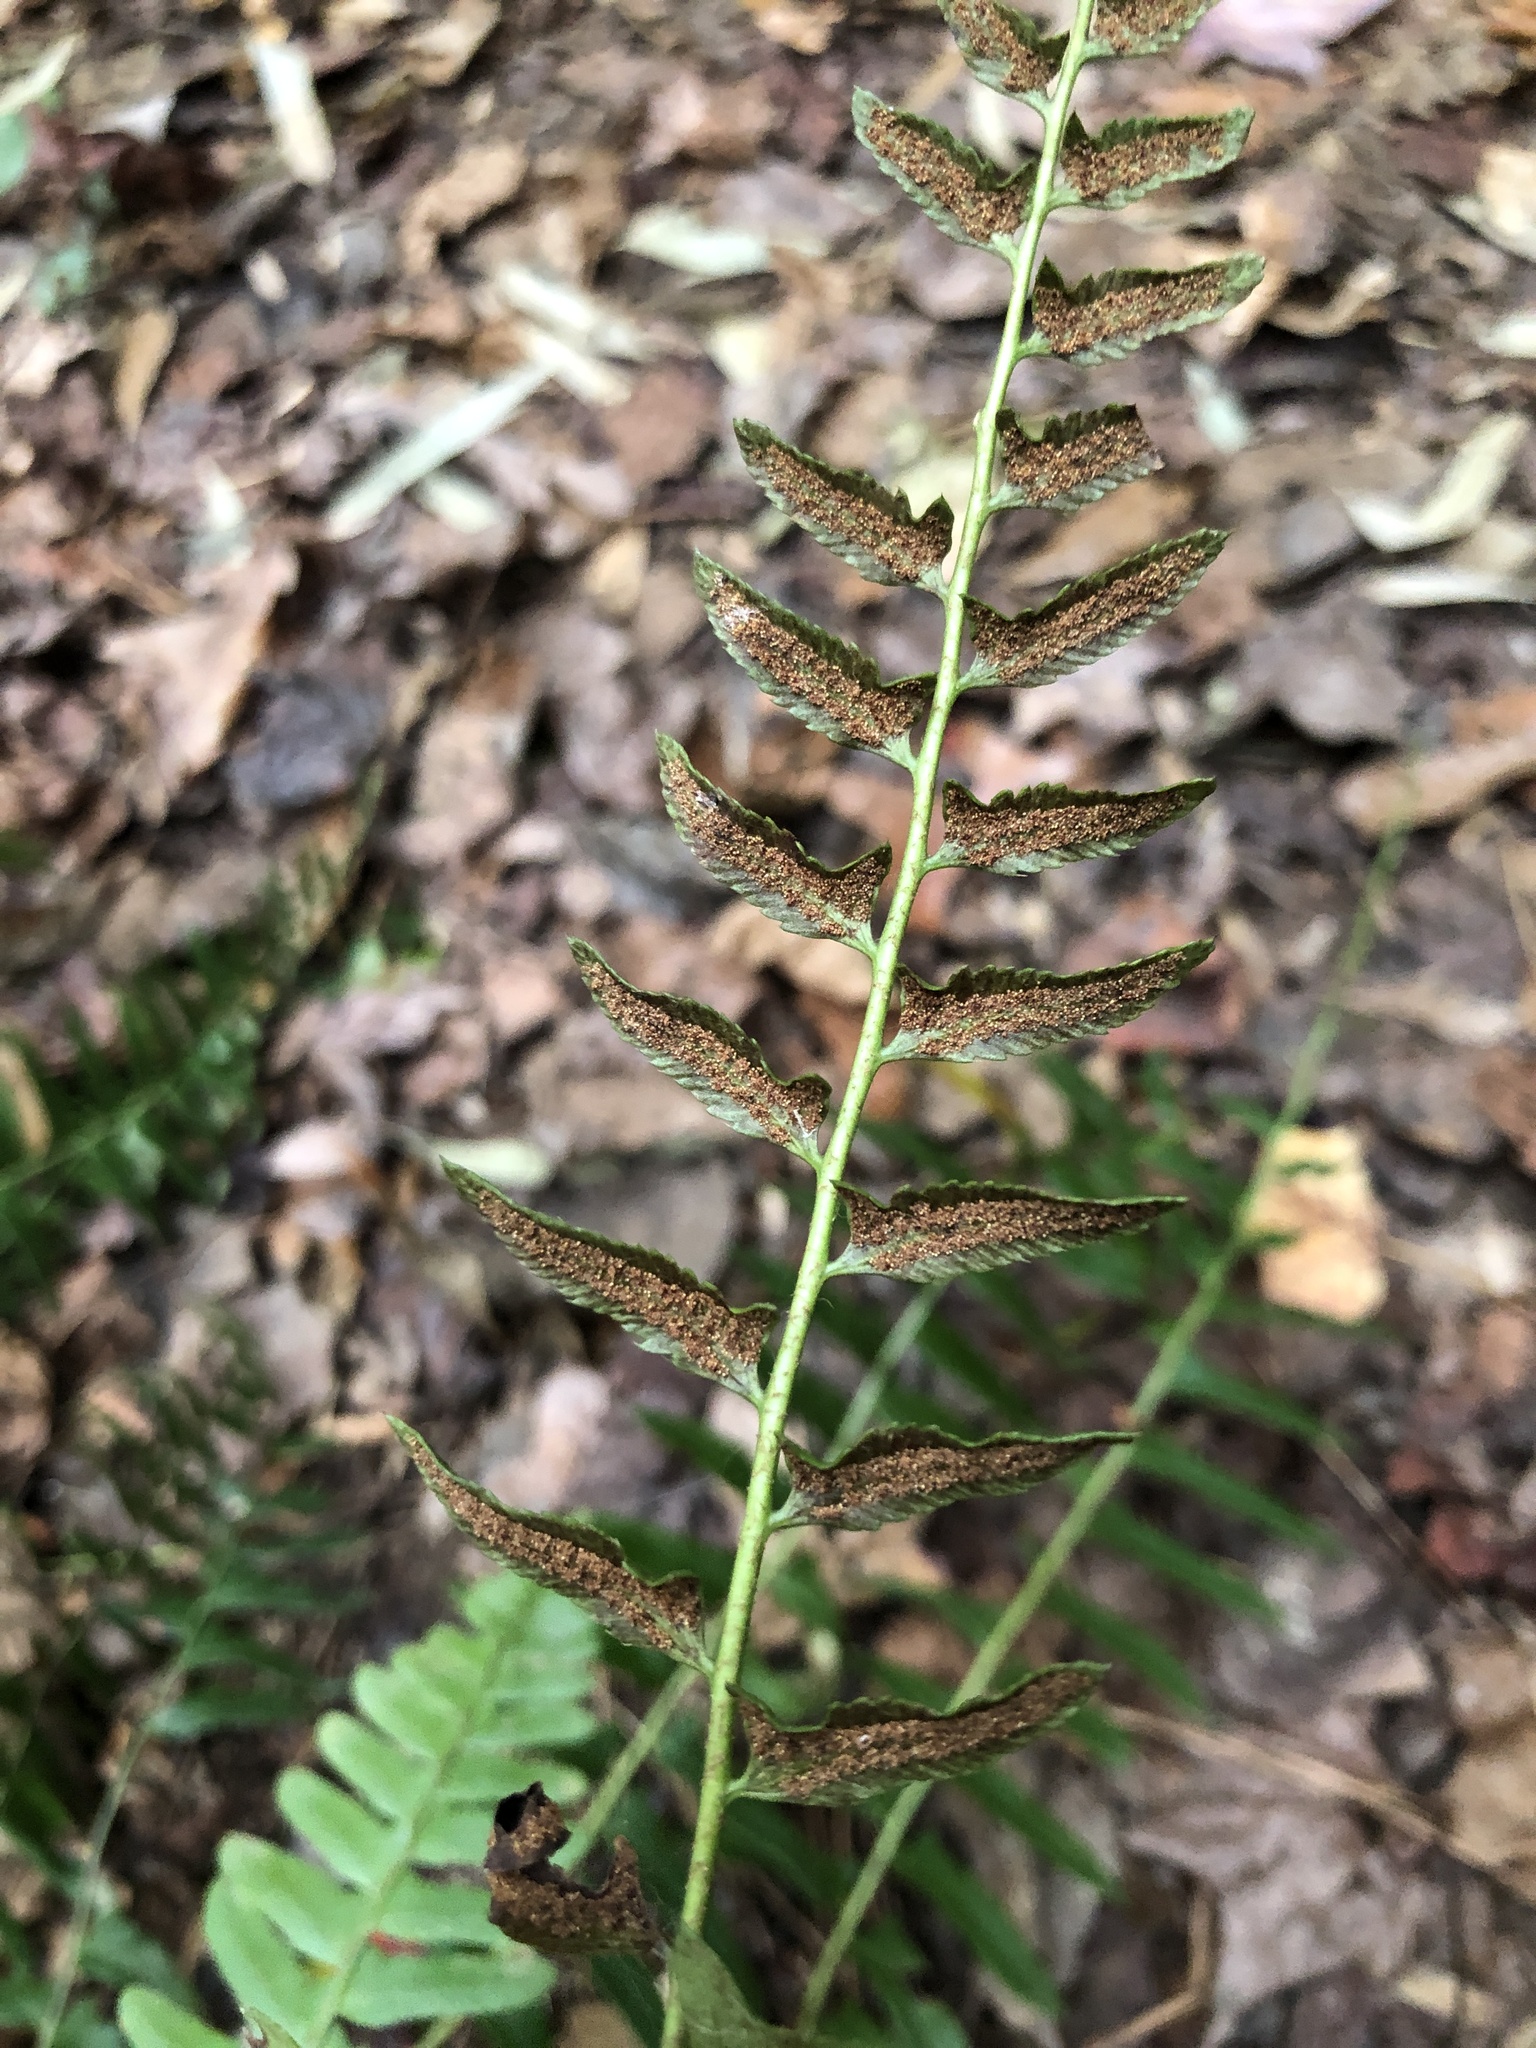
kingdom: Plantae
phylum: Tracheophyta
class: Polypodiopsida
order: Polypodiales
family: Dryopteridaceae
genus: Polystichum
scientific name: Polystichum acrostichoides
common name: Christmas fern
